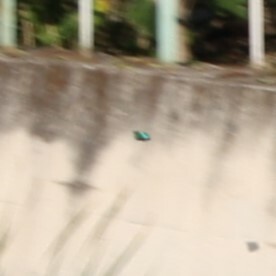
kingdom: Animalia
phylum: Chordata
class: Aves
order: Coraciiformes
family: Alcedinidae
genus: Alcedo
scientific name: Alcedo atthis
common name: Common kingfisher
